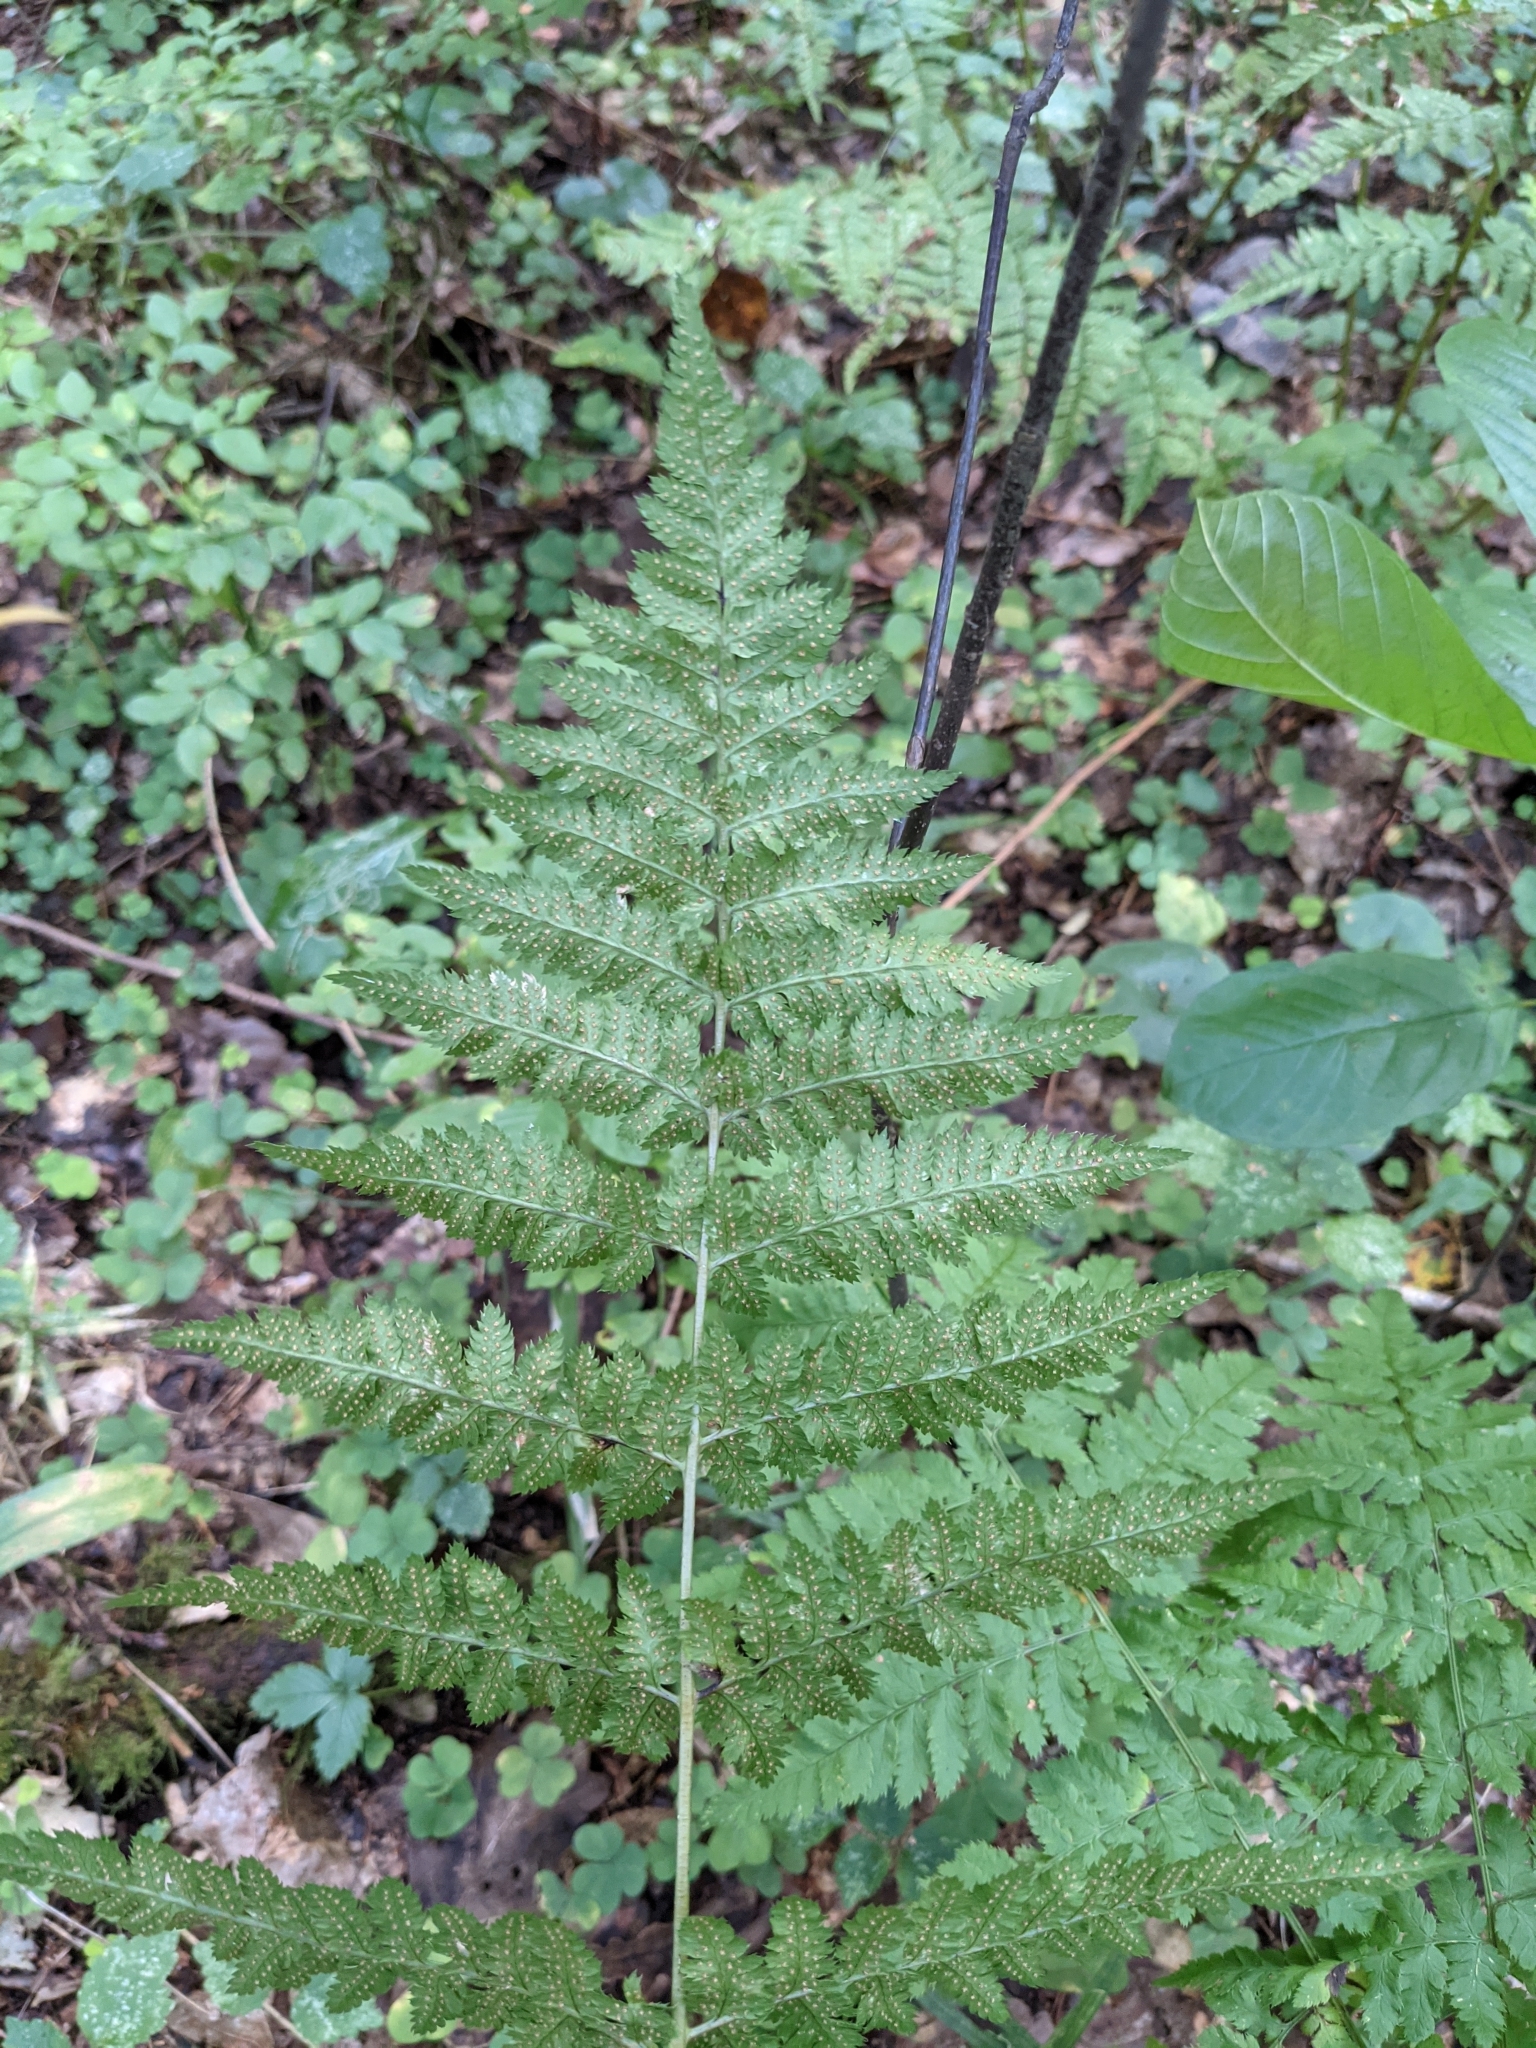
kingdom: Plantae
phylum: Tracheophyta
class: Polypodiopsida
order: Polypodiales
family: Dryopteridaceae
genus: Dryopteris
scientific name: Dryopteris carthusiana
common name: Narrow buckler-fern
